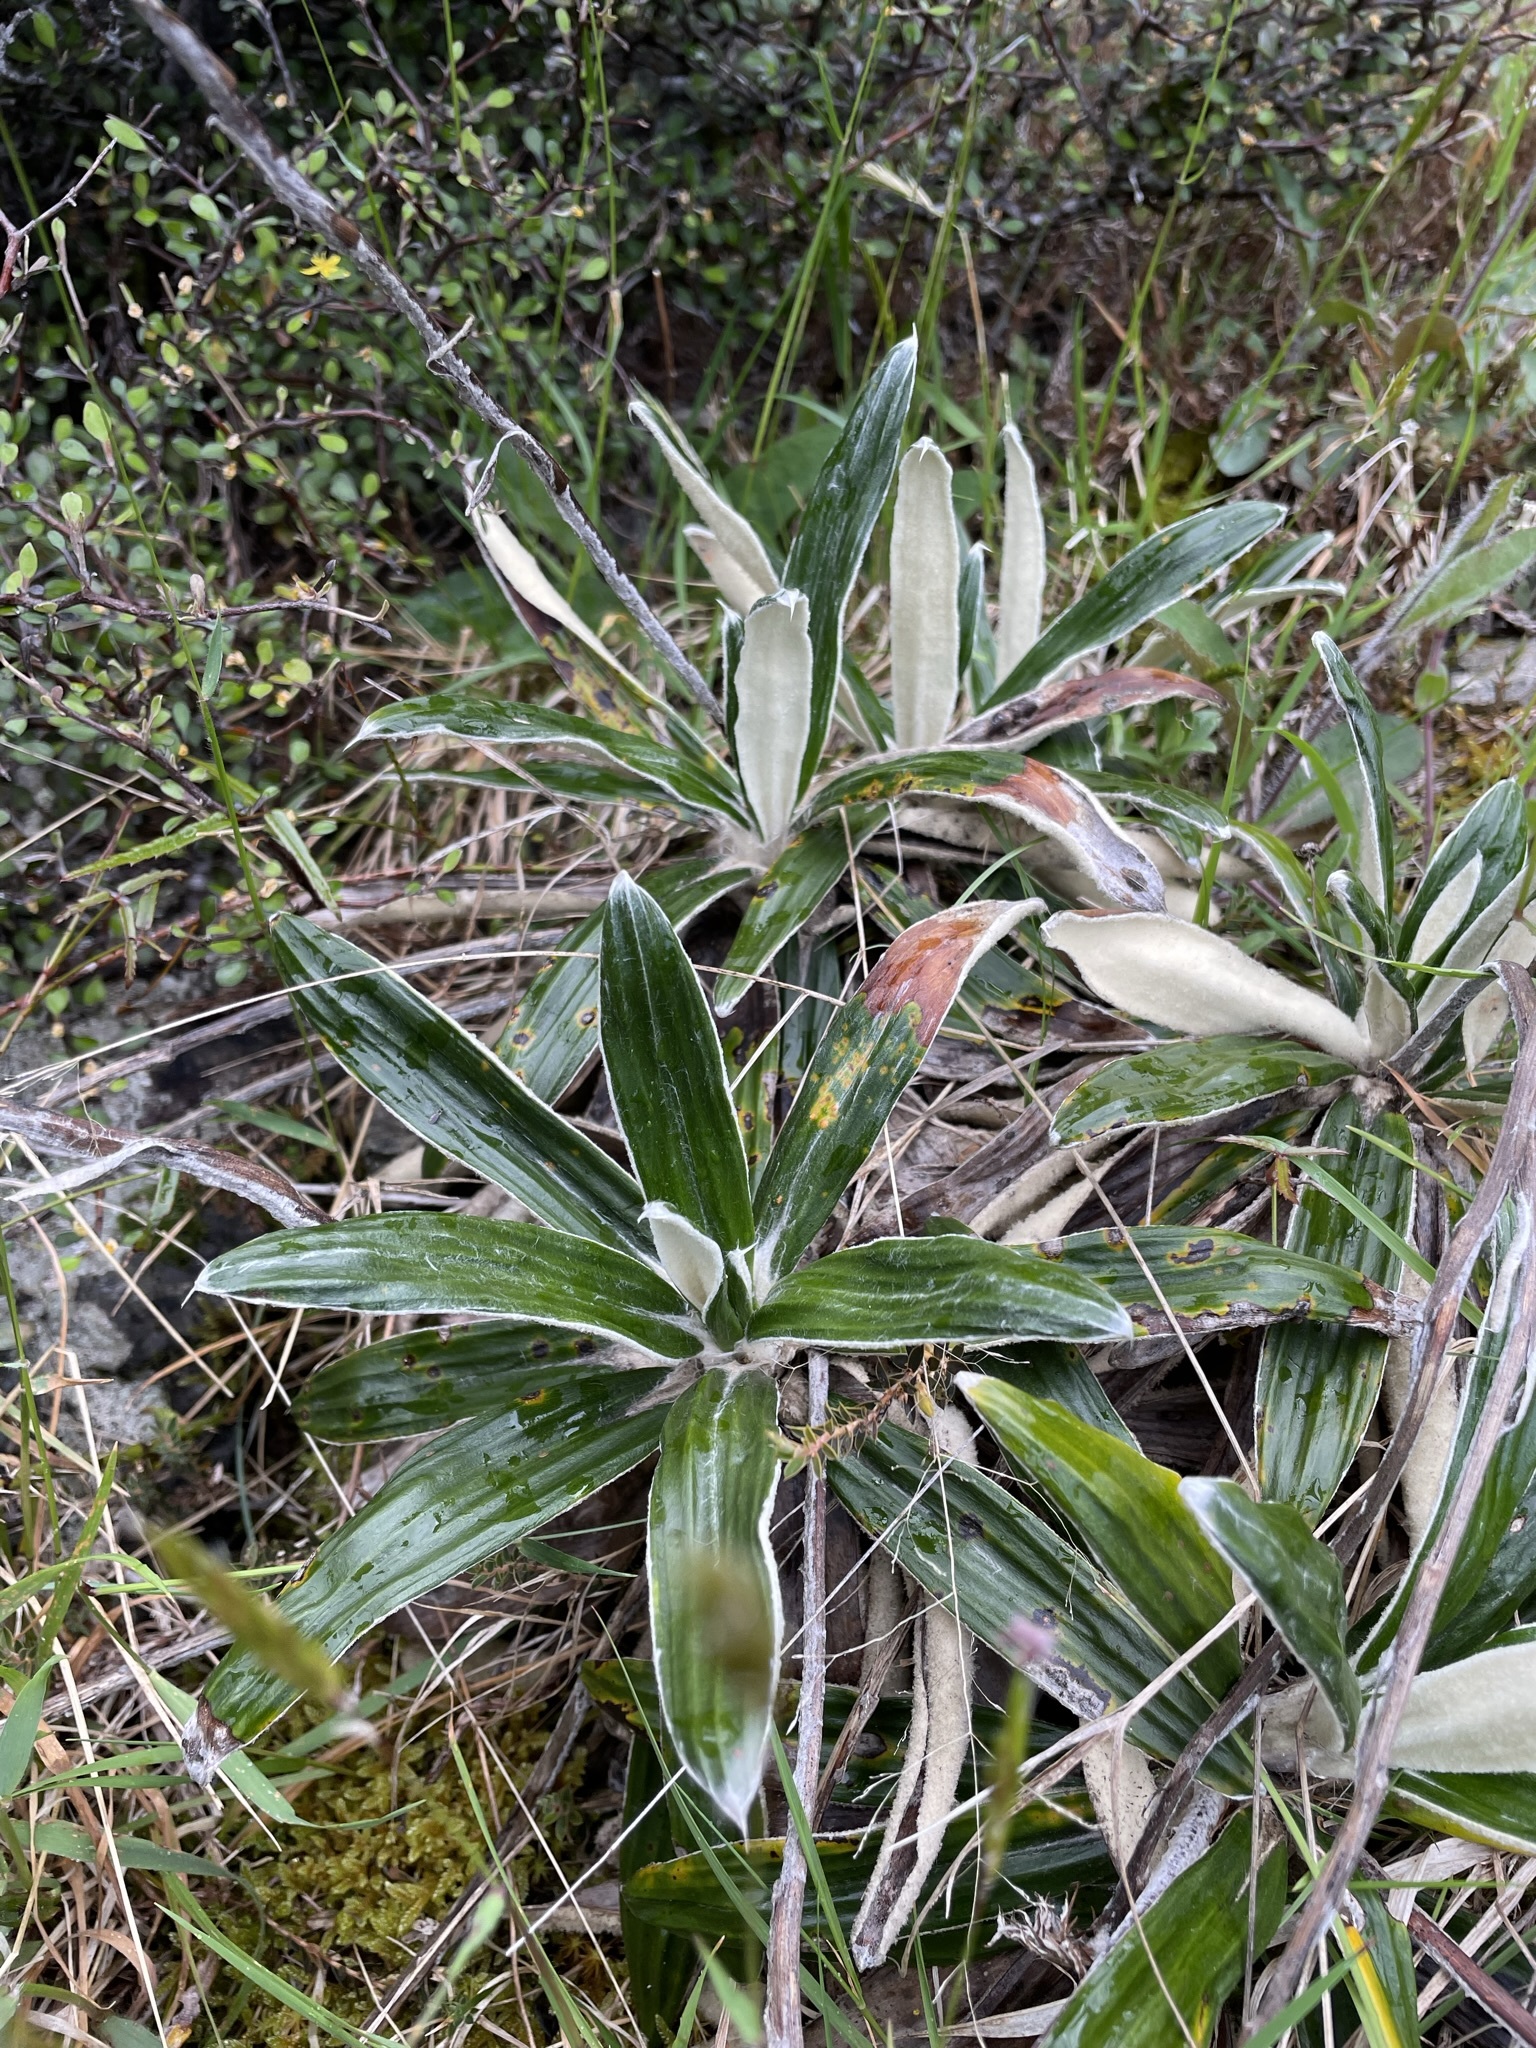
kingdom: Plantae
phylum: Tracheophyta
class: Magnoliopsida
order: Asterales
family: Asteraceae
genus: Celmisia
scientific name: Celmisia spectabilis
